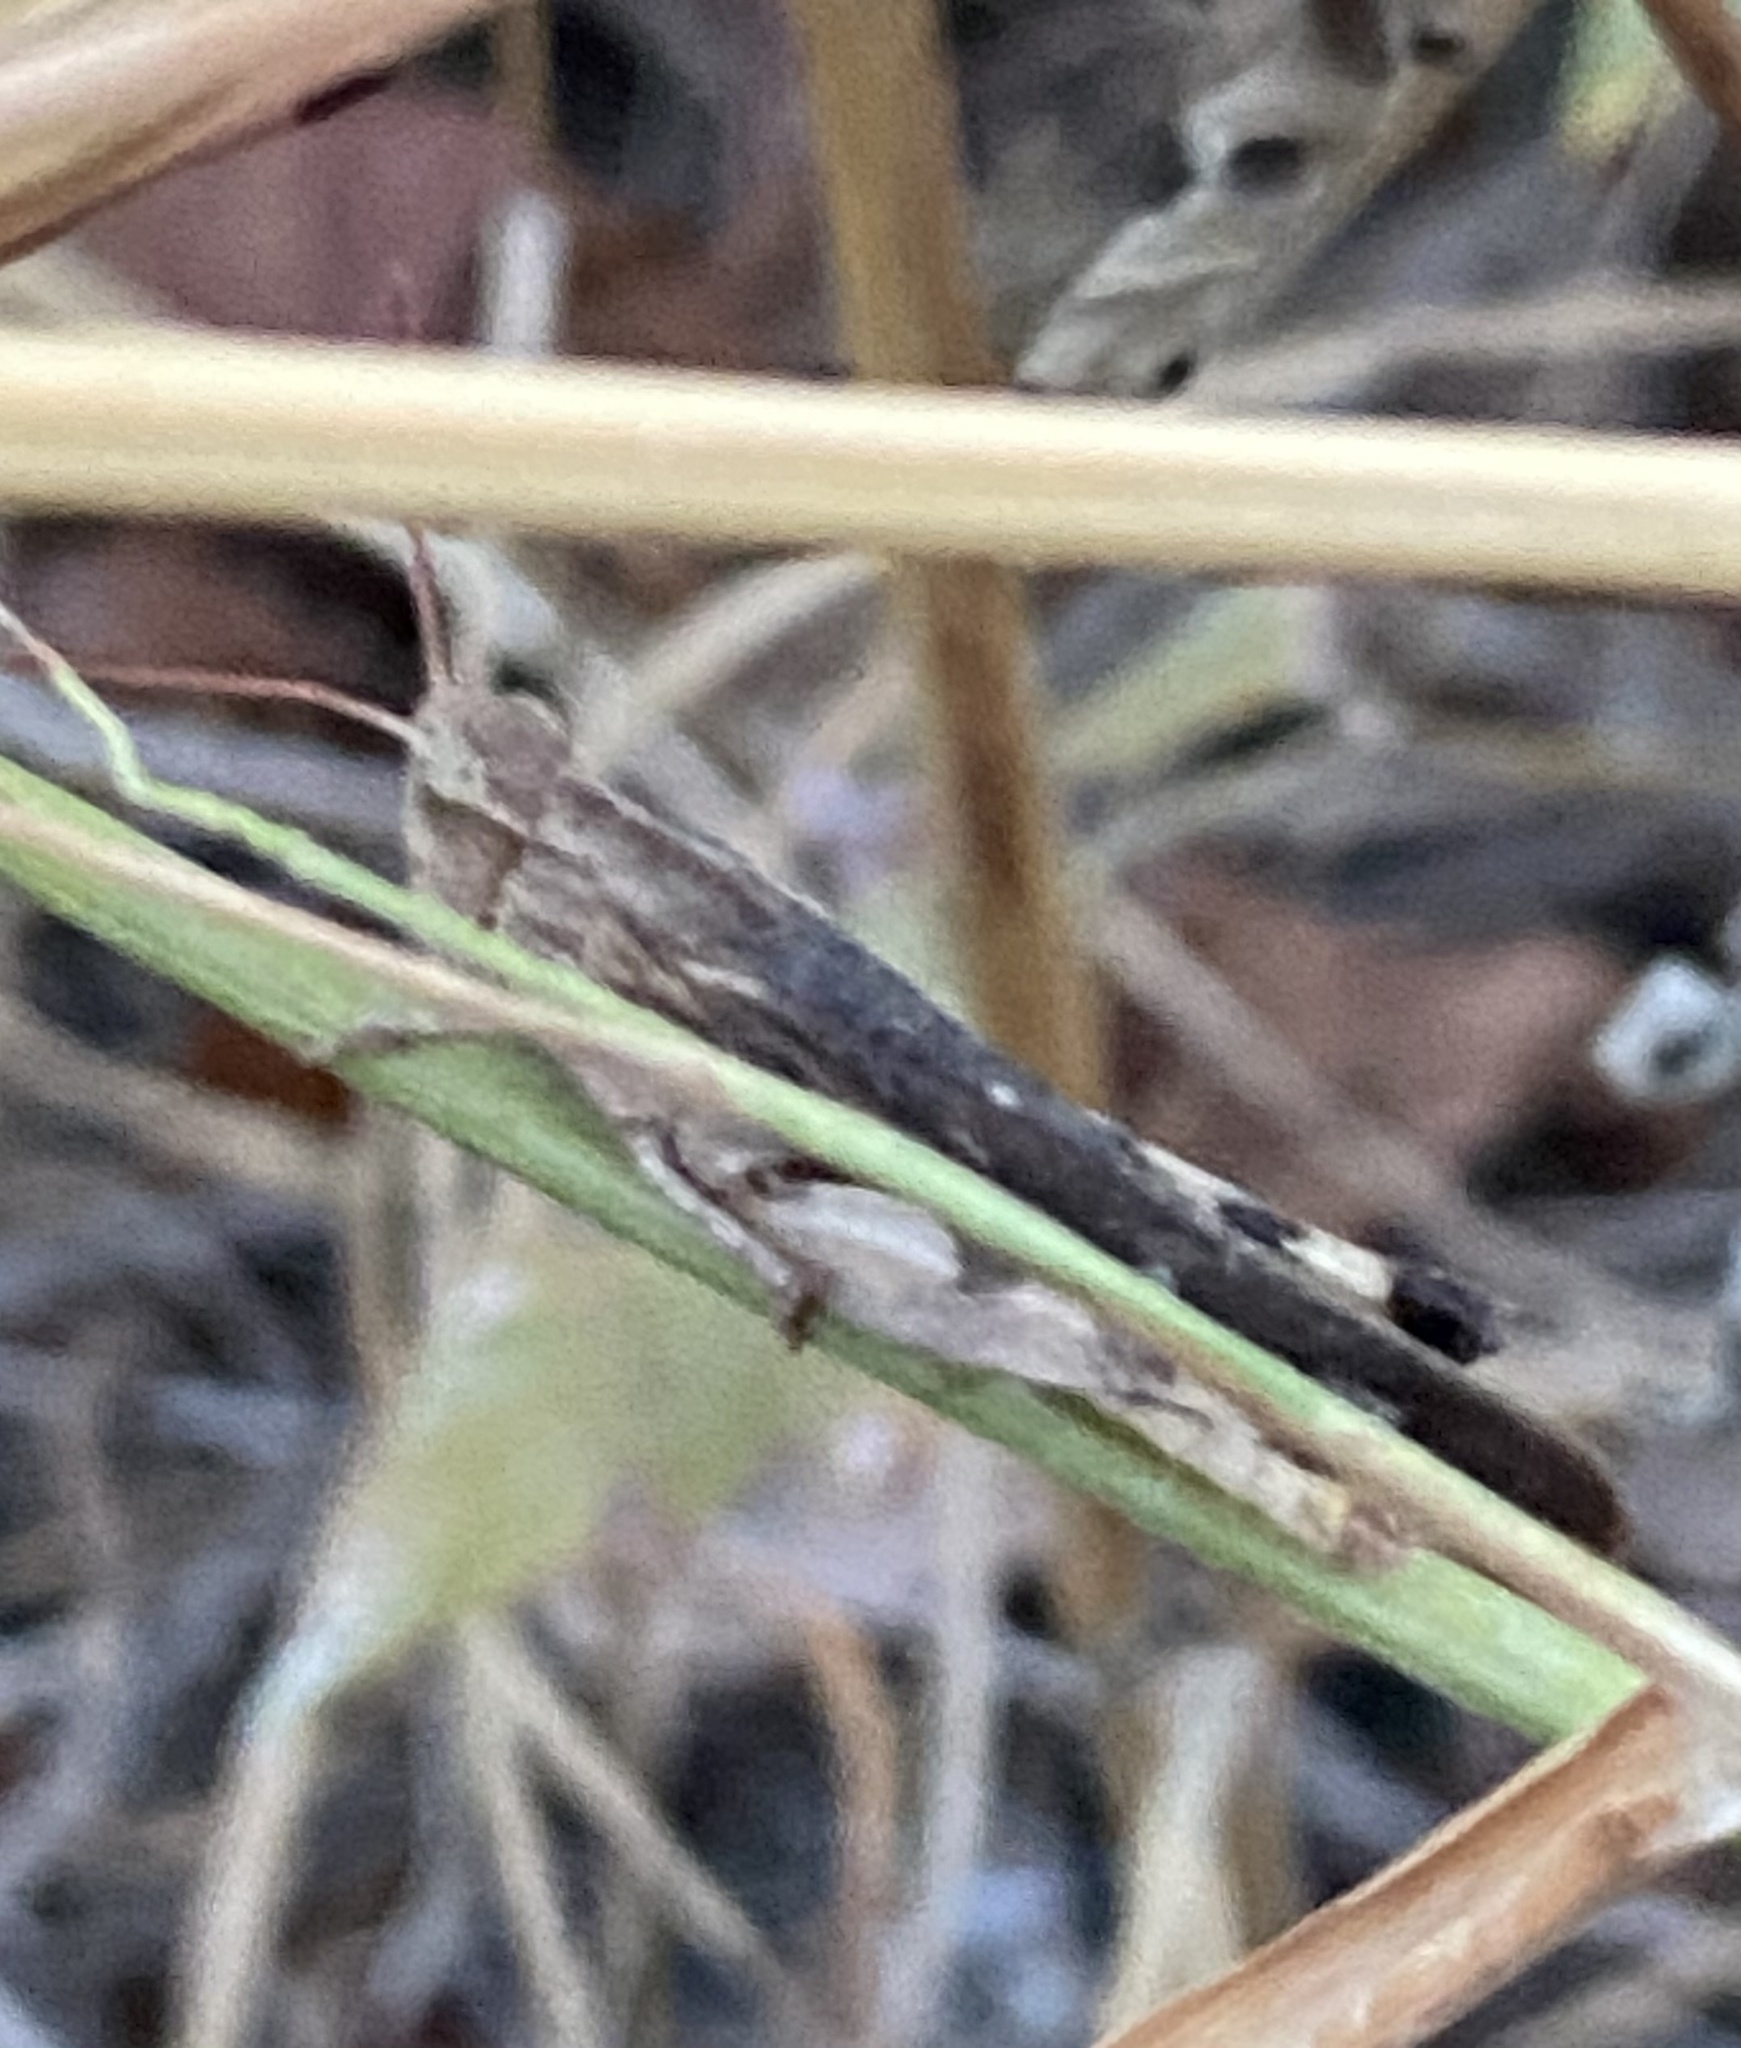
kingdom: Animalia
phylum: Arthropoda
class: Insecta
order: Orthoptera
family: Acrididae
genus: Chortophaga
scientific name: Chortophaga viridifasciata
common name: Green-striped grasshopper
